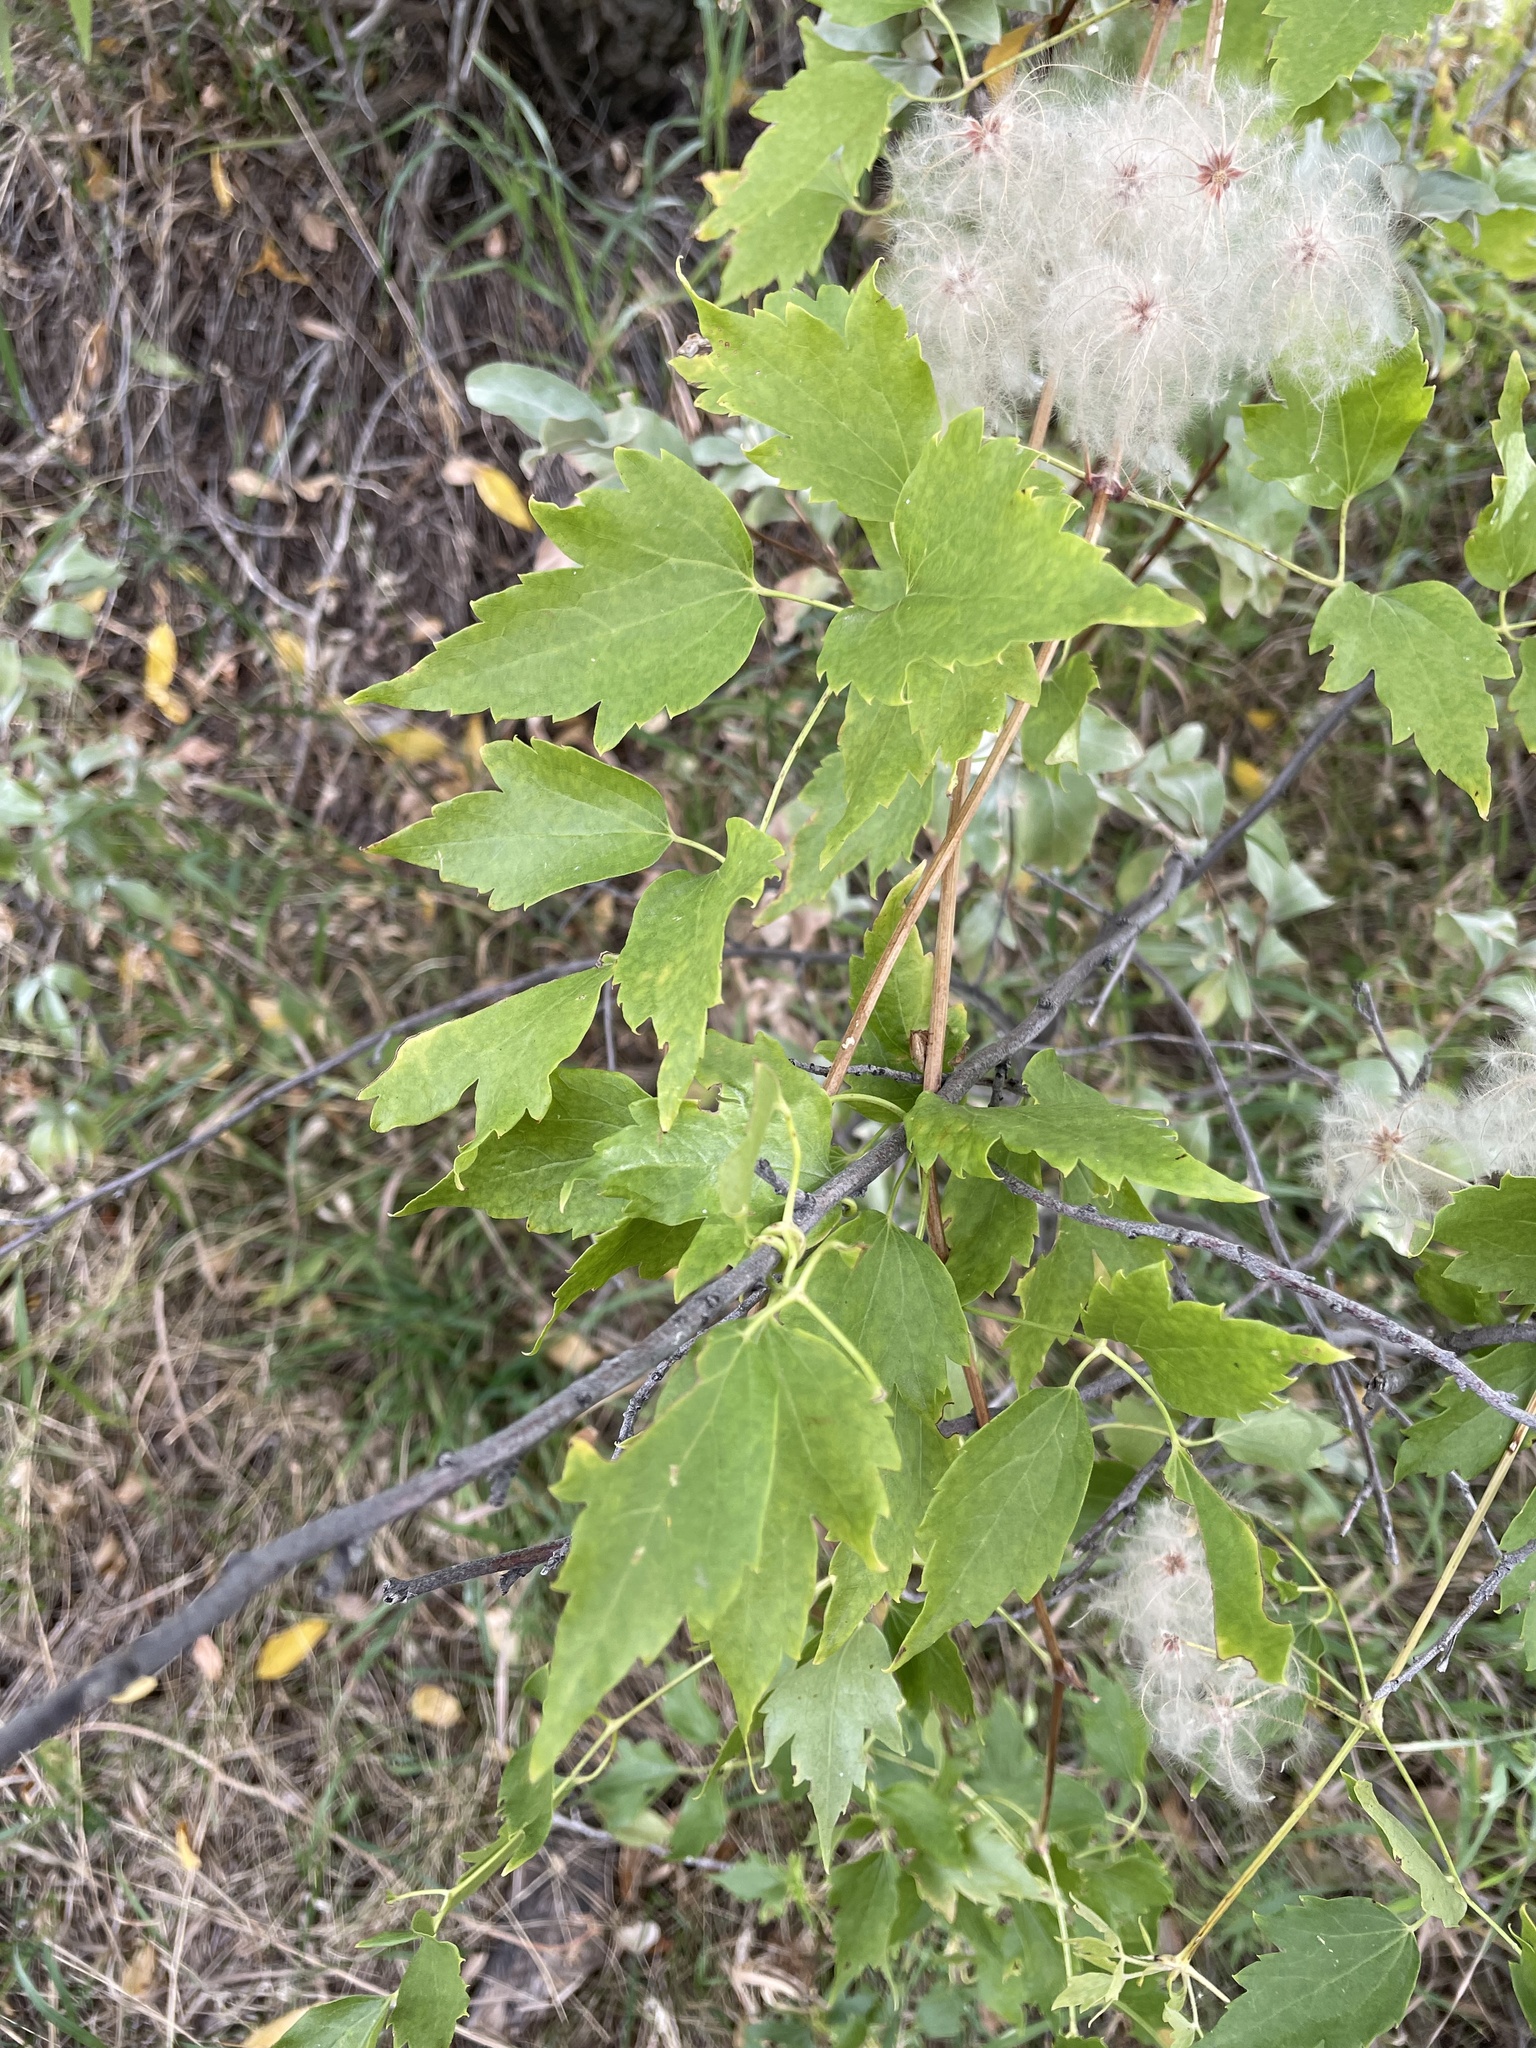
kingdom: Plantae
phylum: Tracheophyta
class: Magnoliopsida
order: Ranunculales
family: Ranunculaceae
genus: Clematis
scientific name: Clematis ligusticifolia
